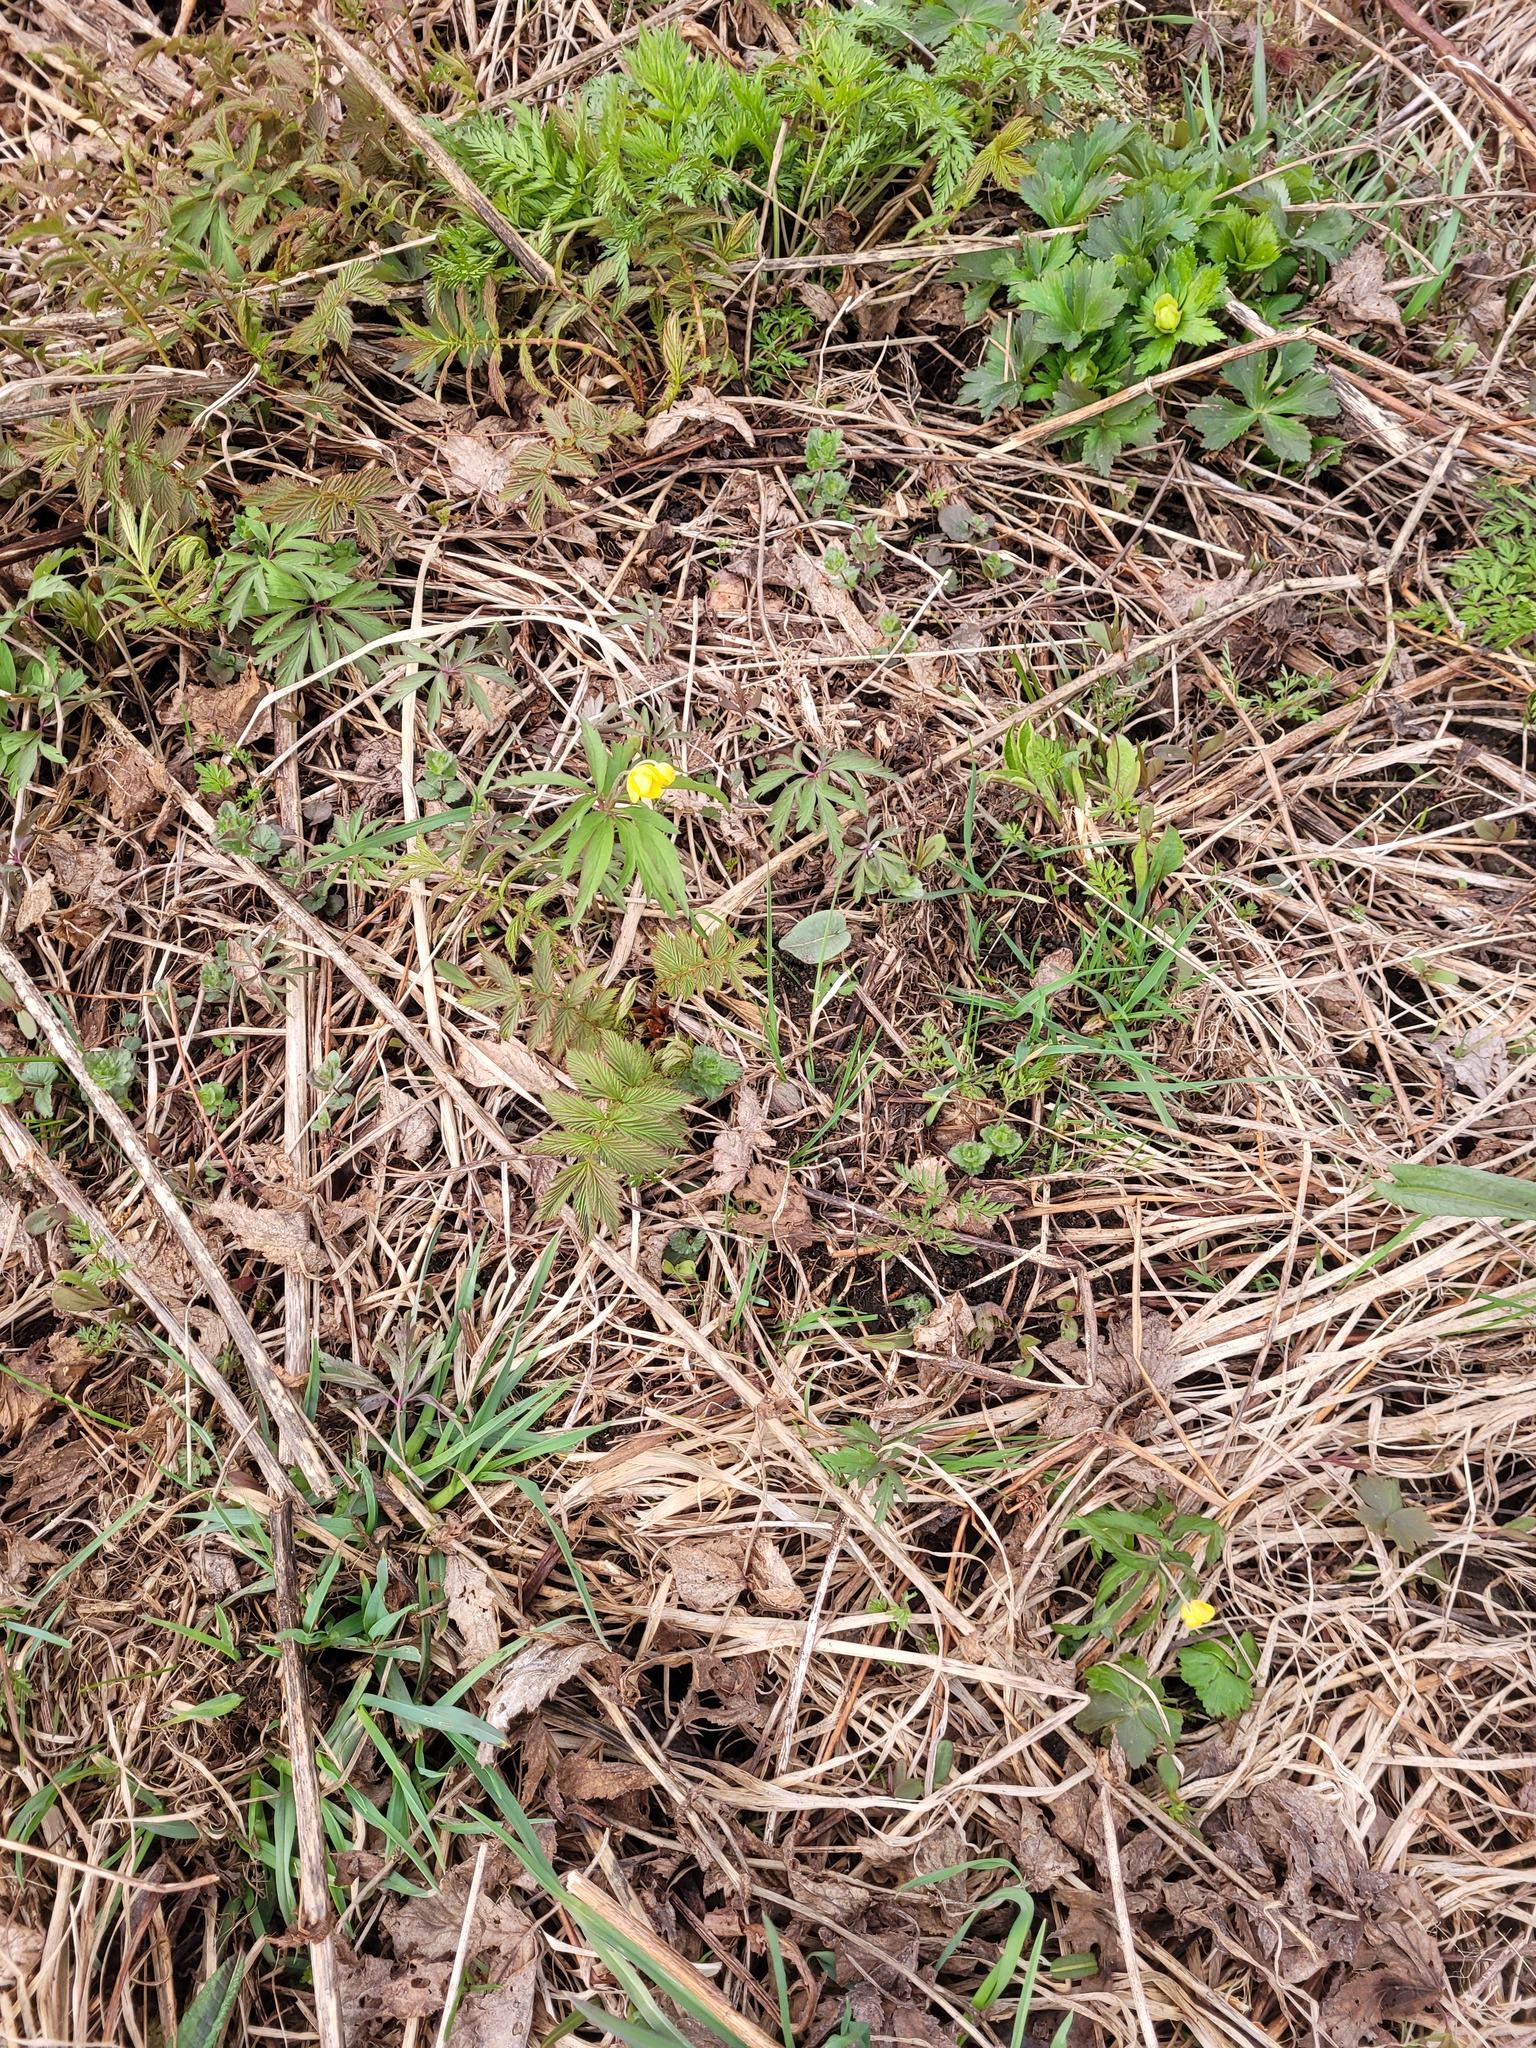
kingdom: Plantae
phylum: Tracheophyta
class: Magnoliopsida
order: Ranunculales
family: Ranunculaceae
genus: Anemone
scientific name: Anemone ranunculoides
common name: Yellow anemone
